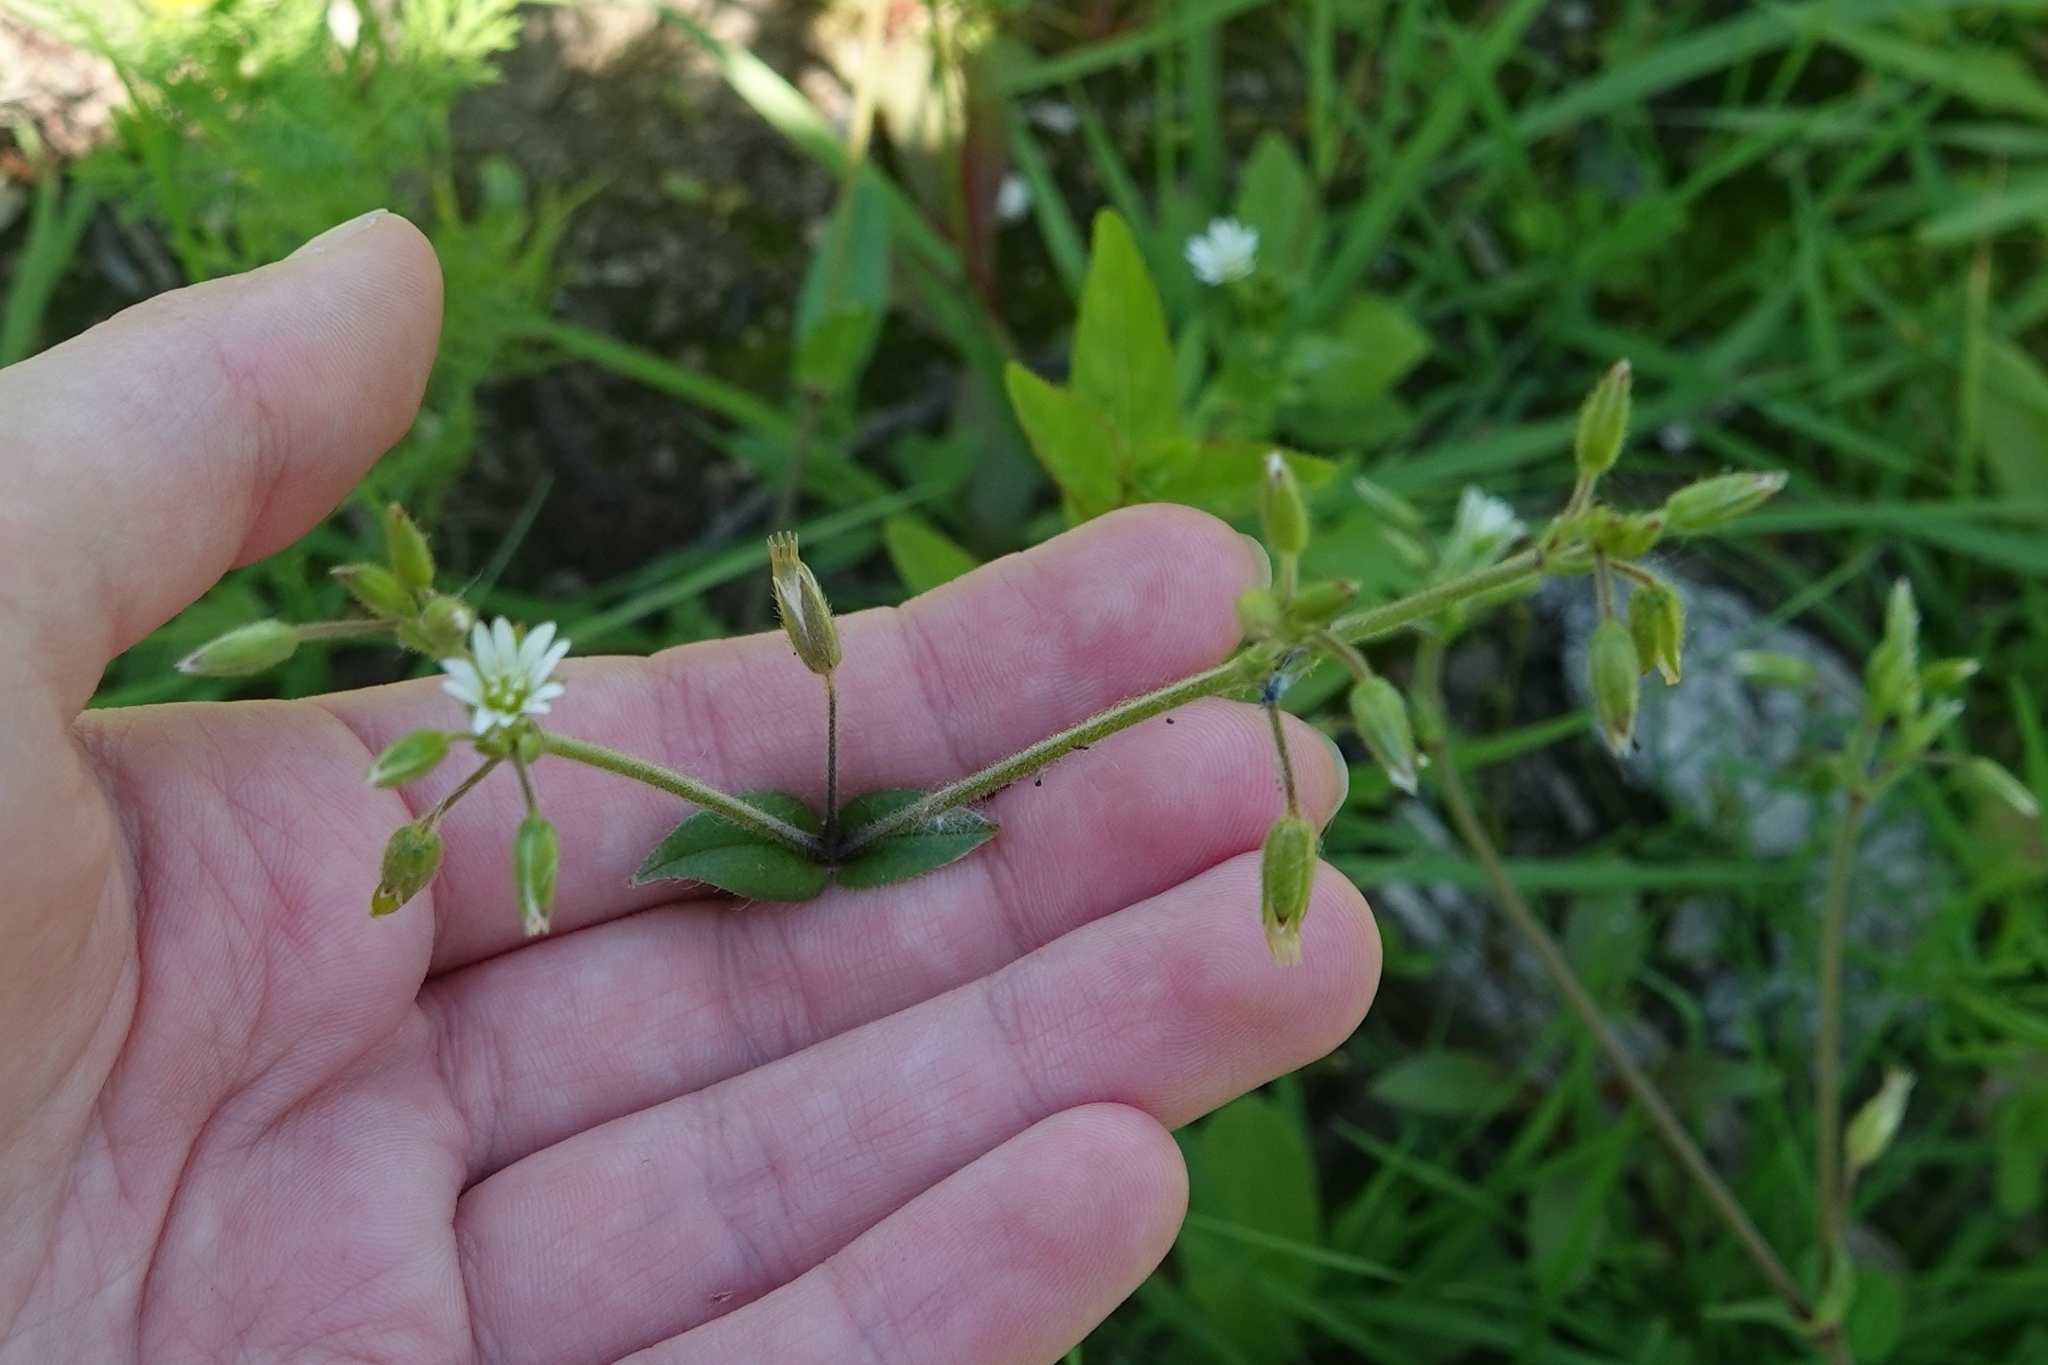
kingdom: Plantae
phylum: Tracheophyta
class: Magnoliopsida
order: Caryophyllales
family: Caryophyllaceae
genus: Cerastium
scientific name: Cerastium holosteoides
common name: Big chickweed
